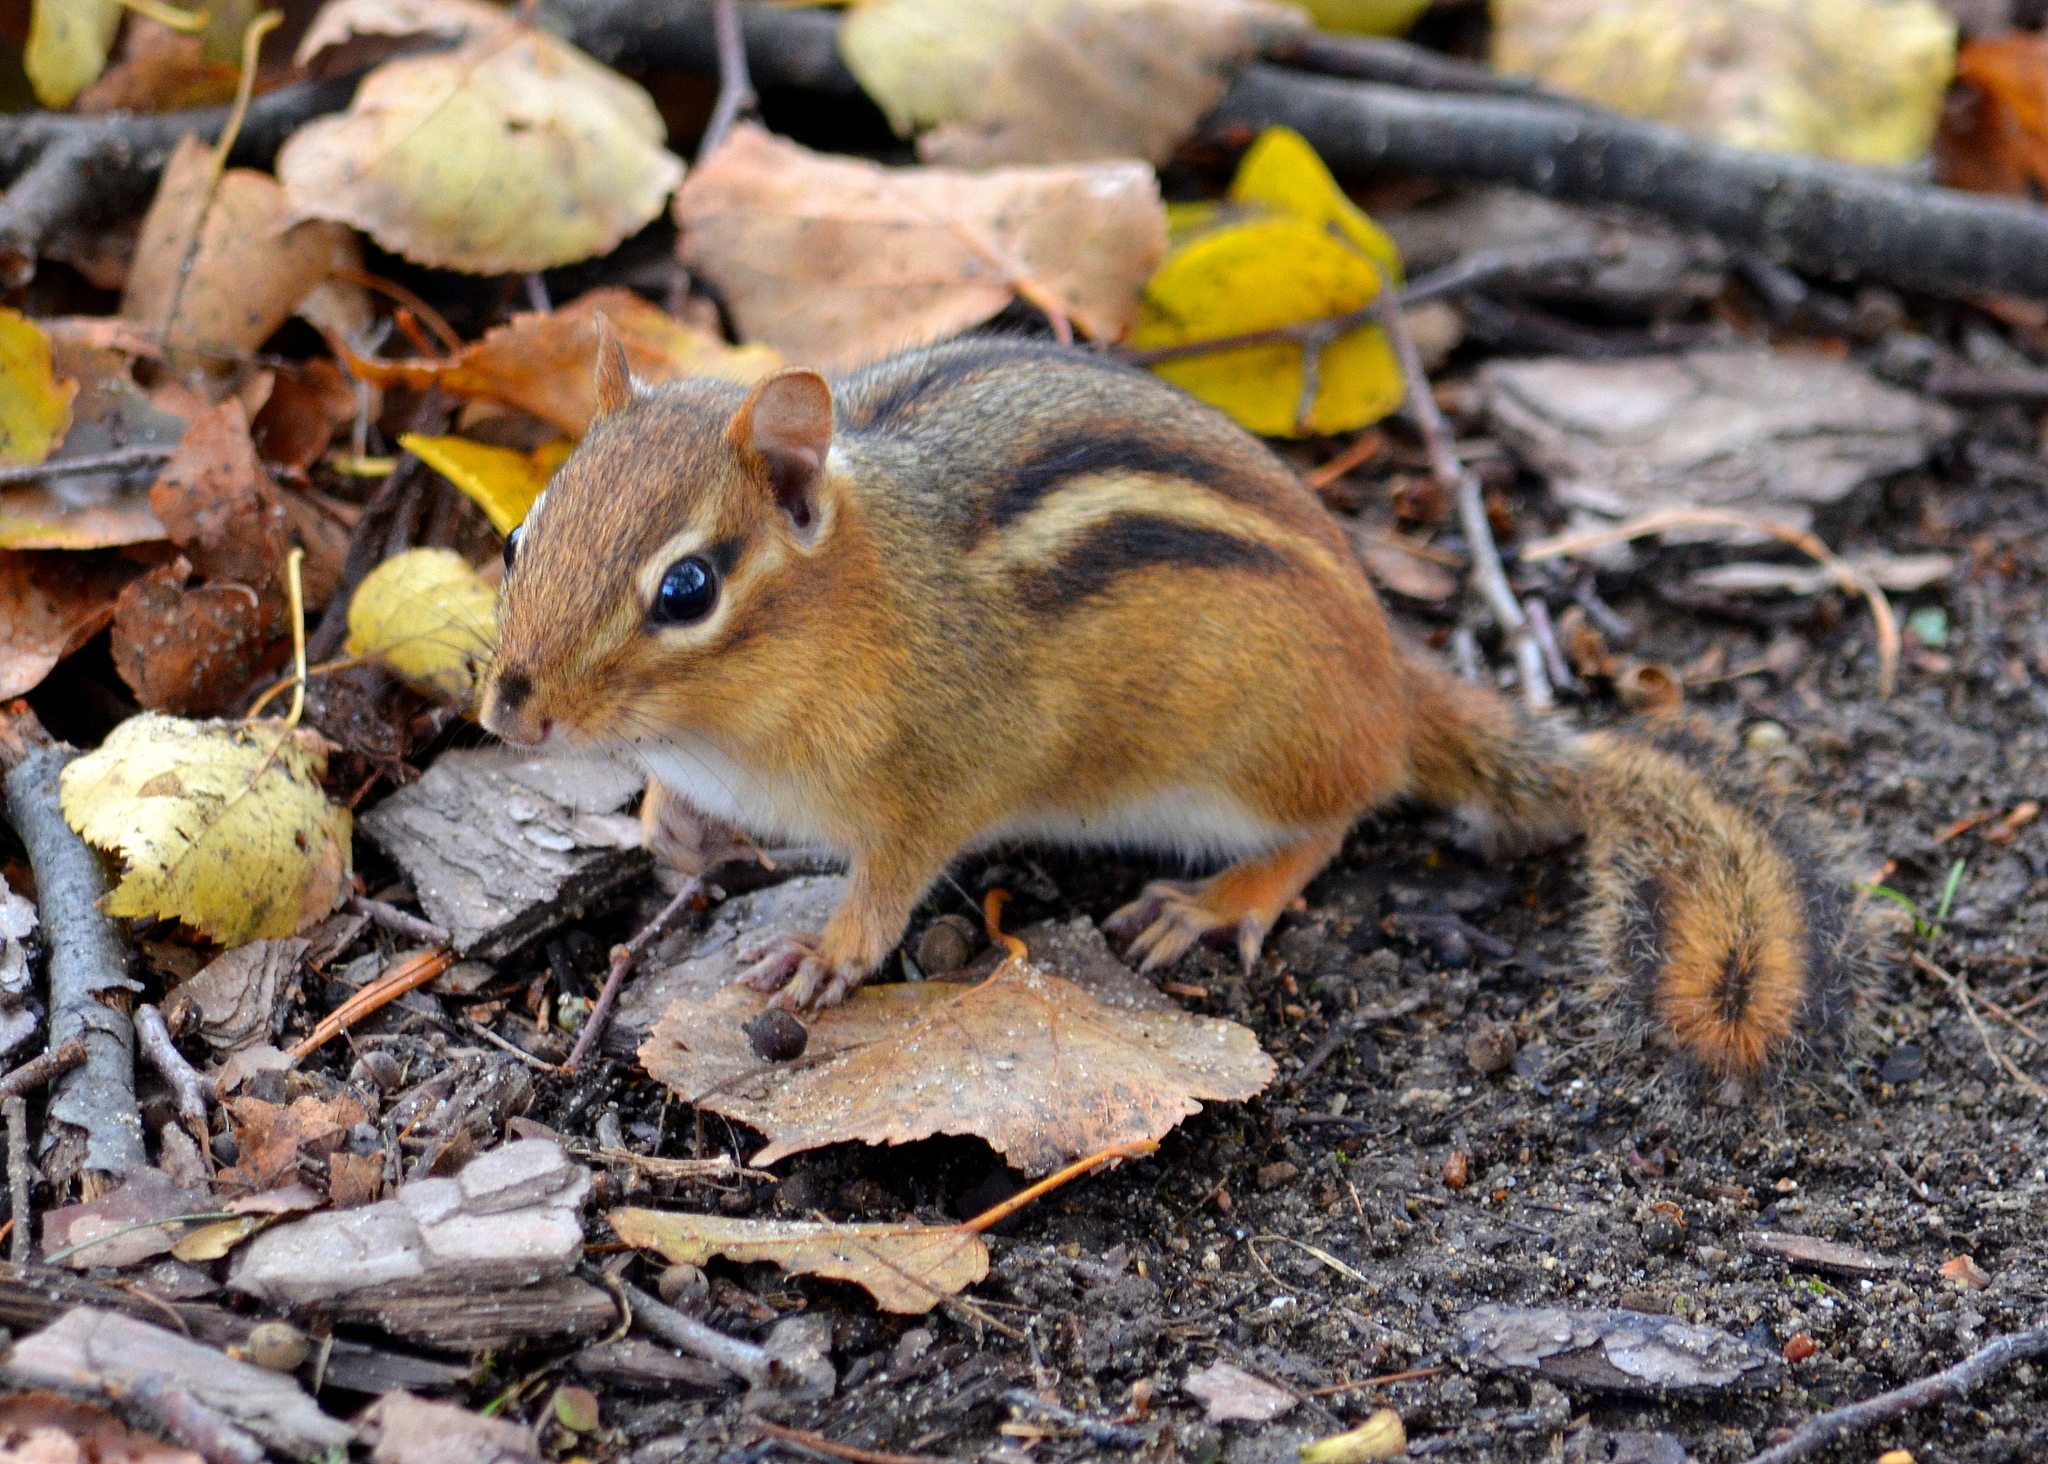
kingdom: Animalia
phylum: Chordata
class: Mammalia
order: Rodentia
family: Sciuridae
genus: Tamias
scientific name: Tamias striatus
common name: Eastern chipmunk
